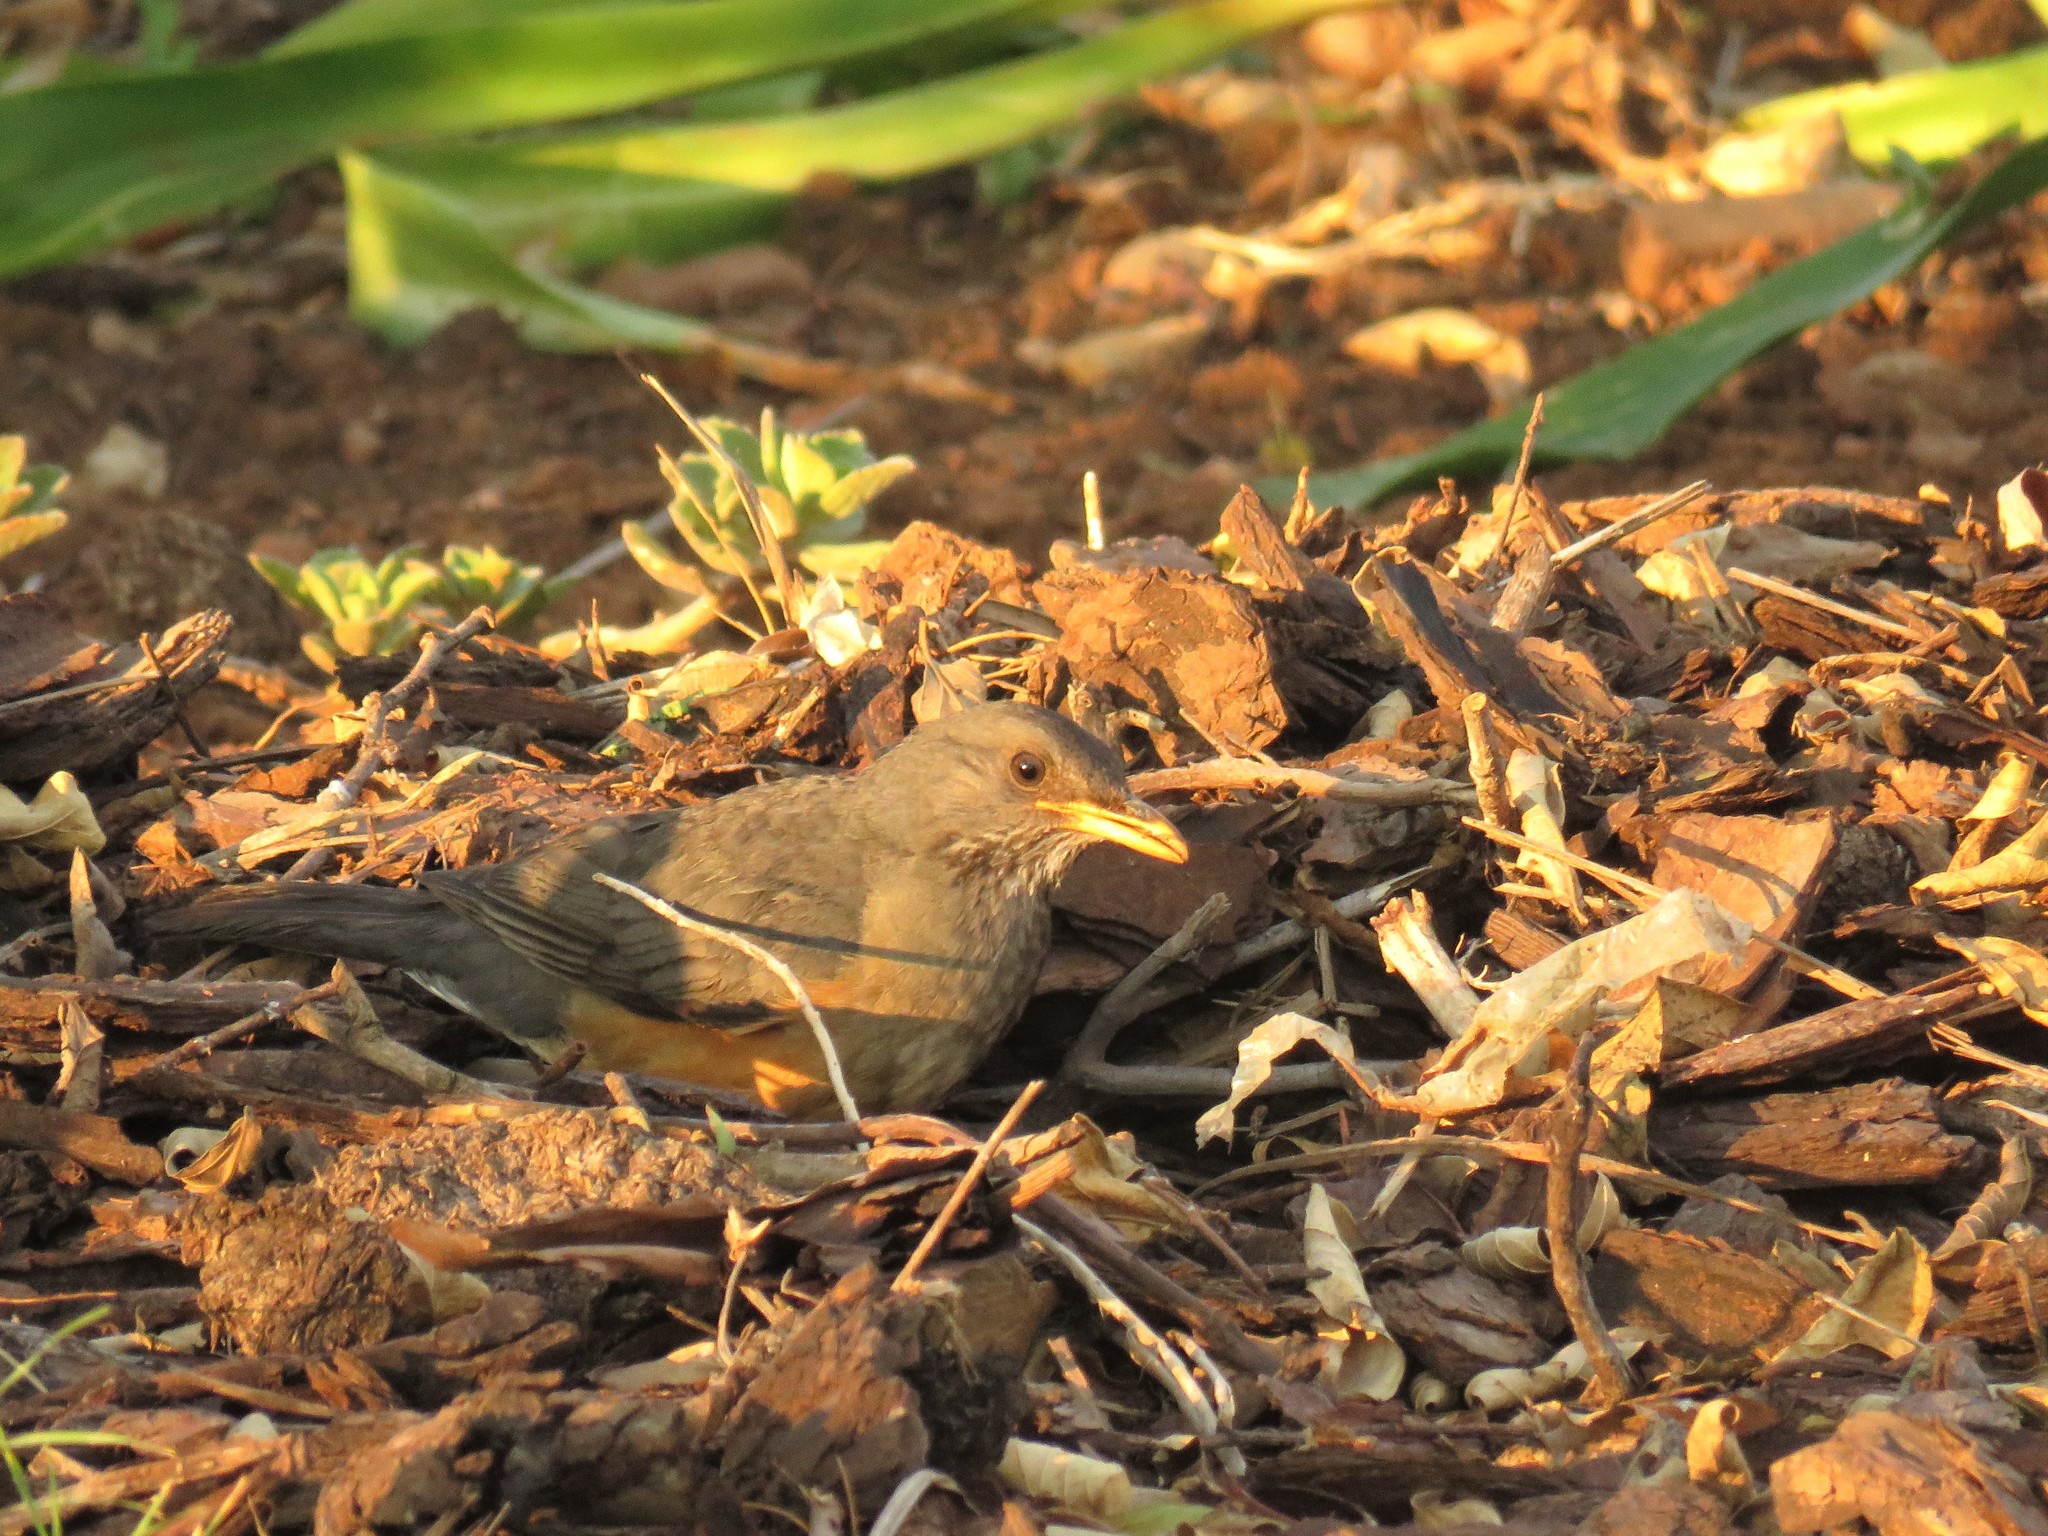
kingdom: Animalia
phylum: Chordata
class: Aves
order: Passeriformes
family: Turdidae
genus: Turdus
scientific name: Turdus olivaceus
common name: Olive thrush
